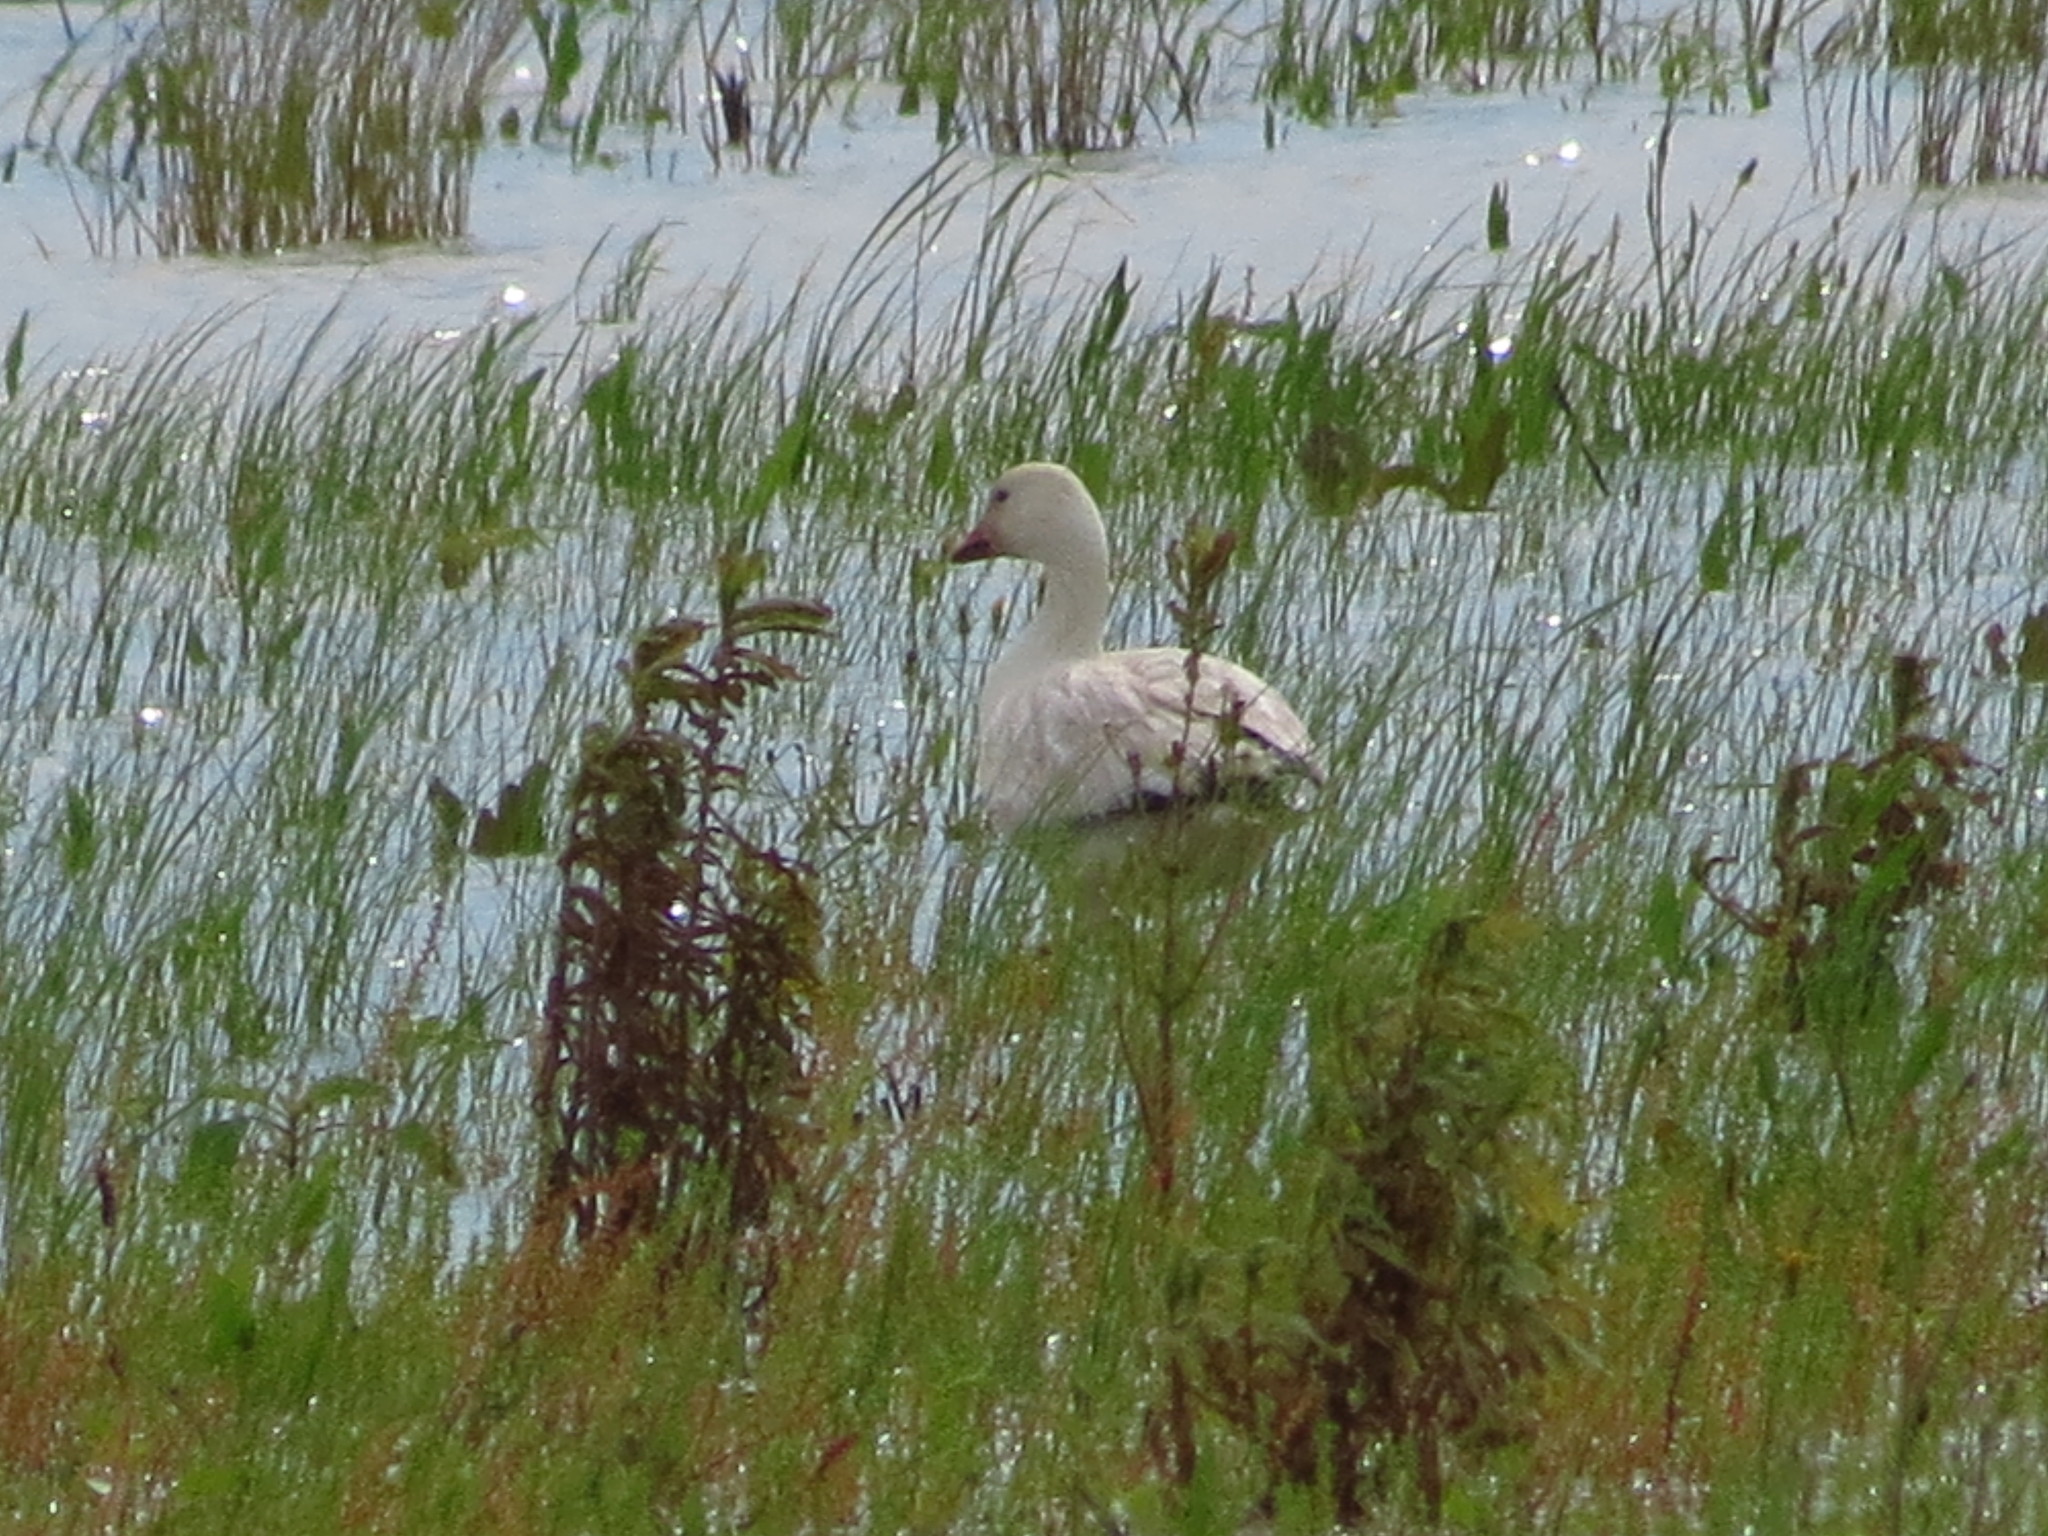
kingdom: Animalia
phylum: Chordata
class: Aves
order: Anseriformes
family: Anatidae
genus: Anser
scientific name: Anser caerulescens
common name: Snow goose
